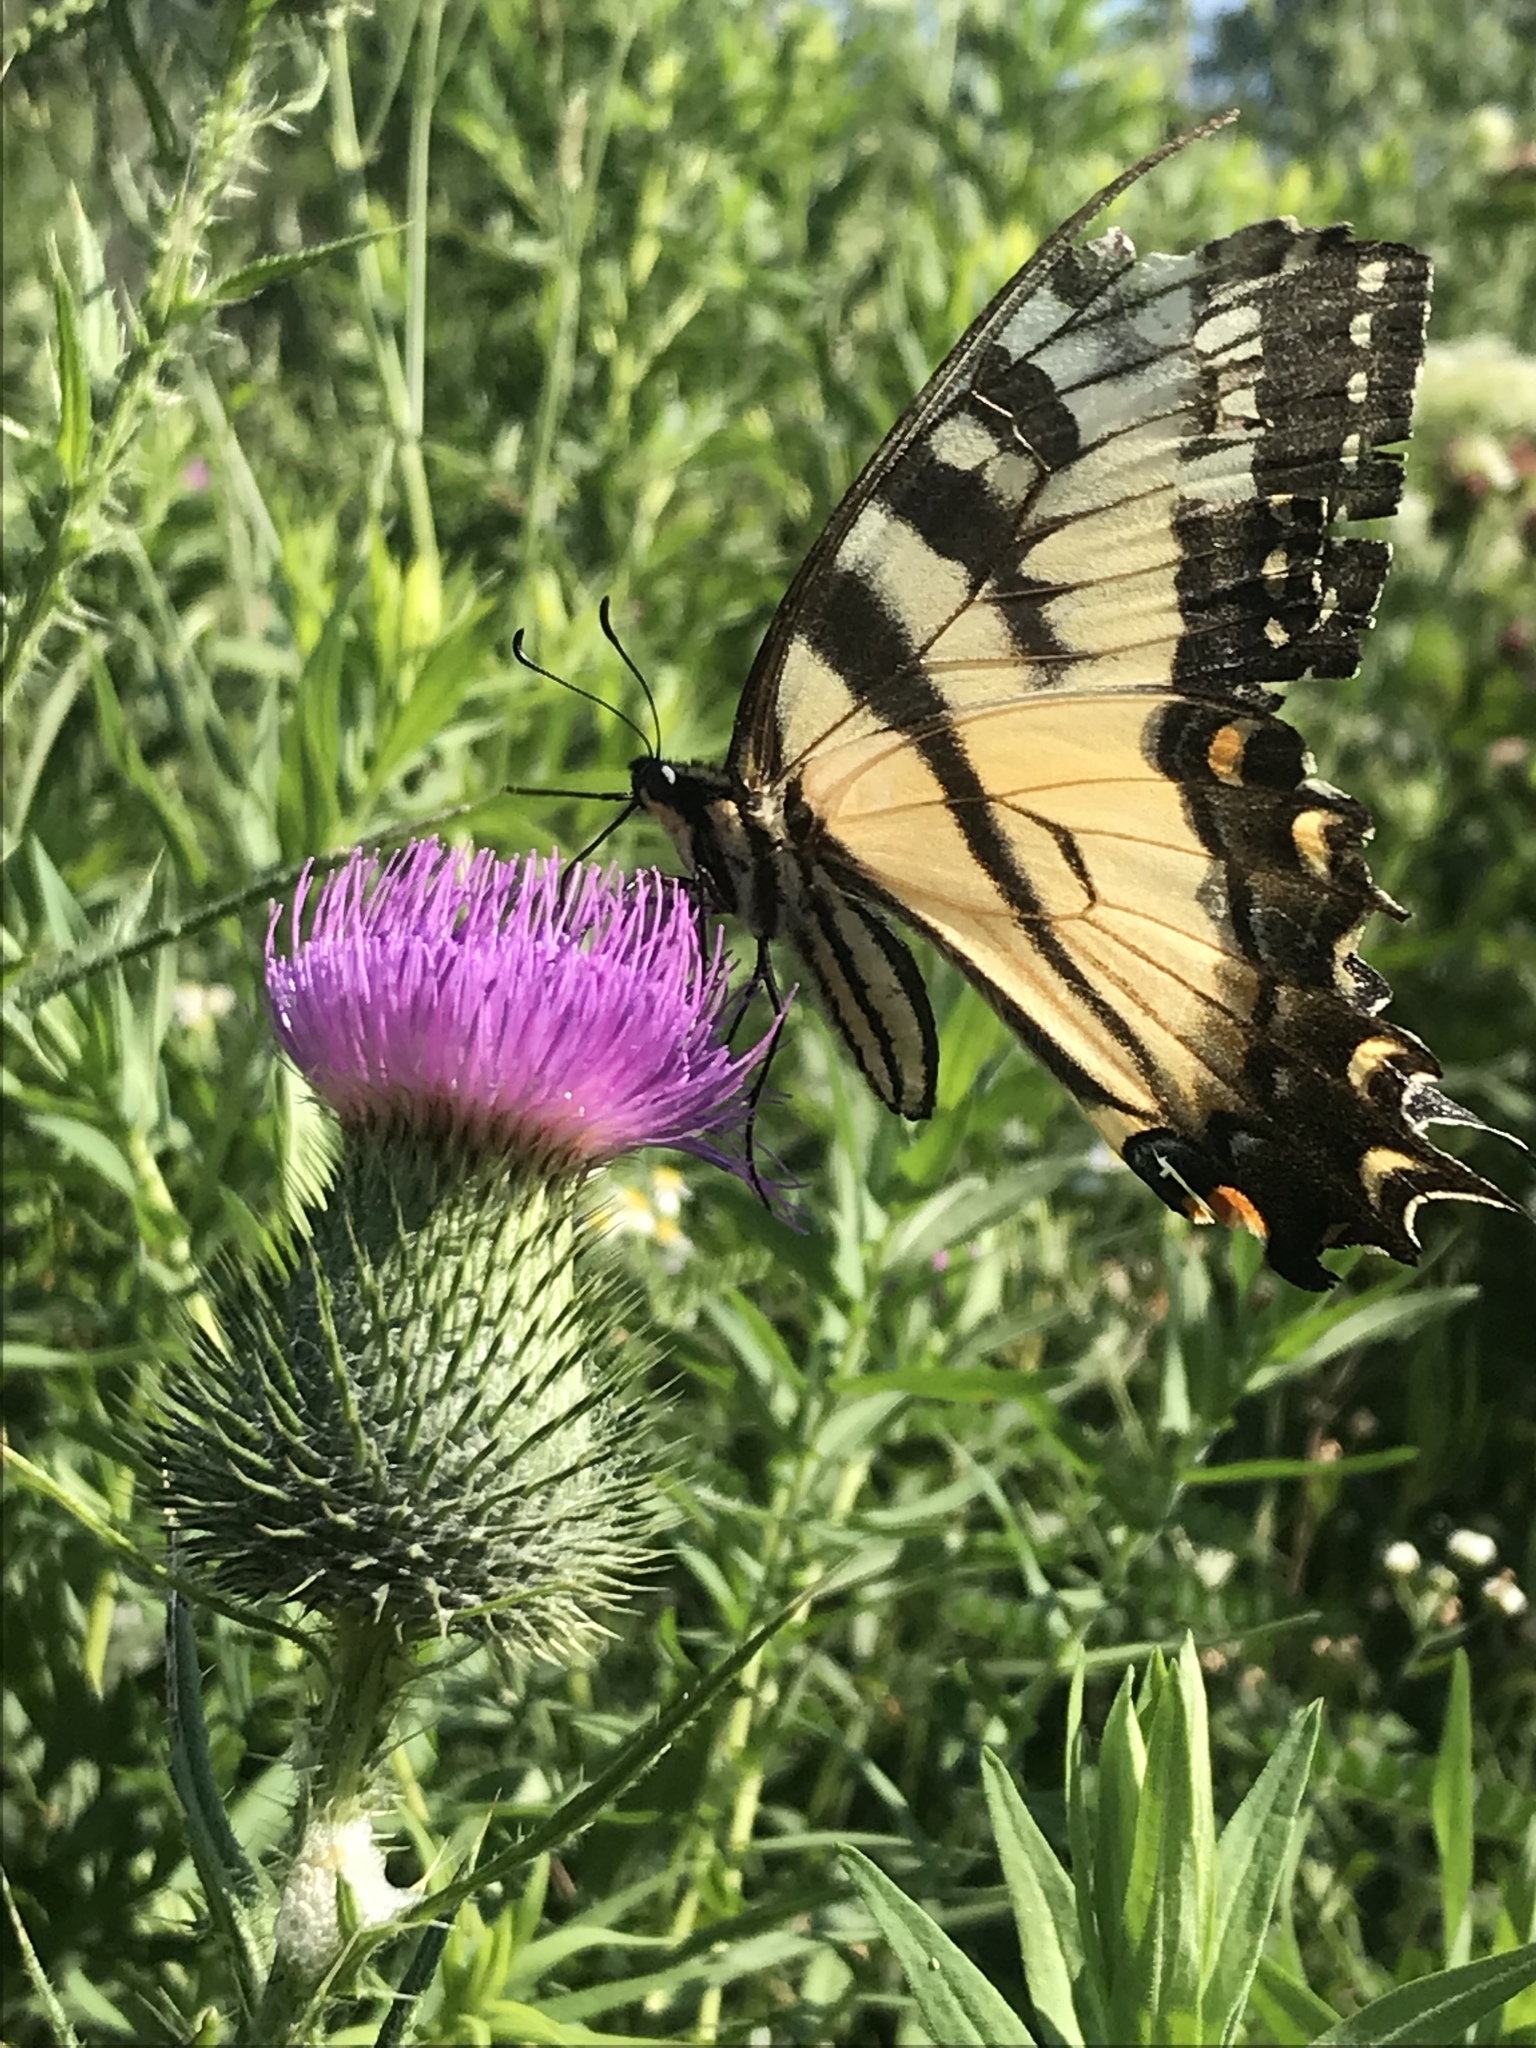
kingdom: Animalia
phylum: Arthropoda
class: Insecta
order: Lepidoptera
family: Papilionidae
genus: Papilio
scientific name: Papilio
